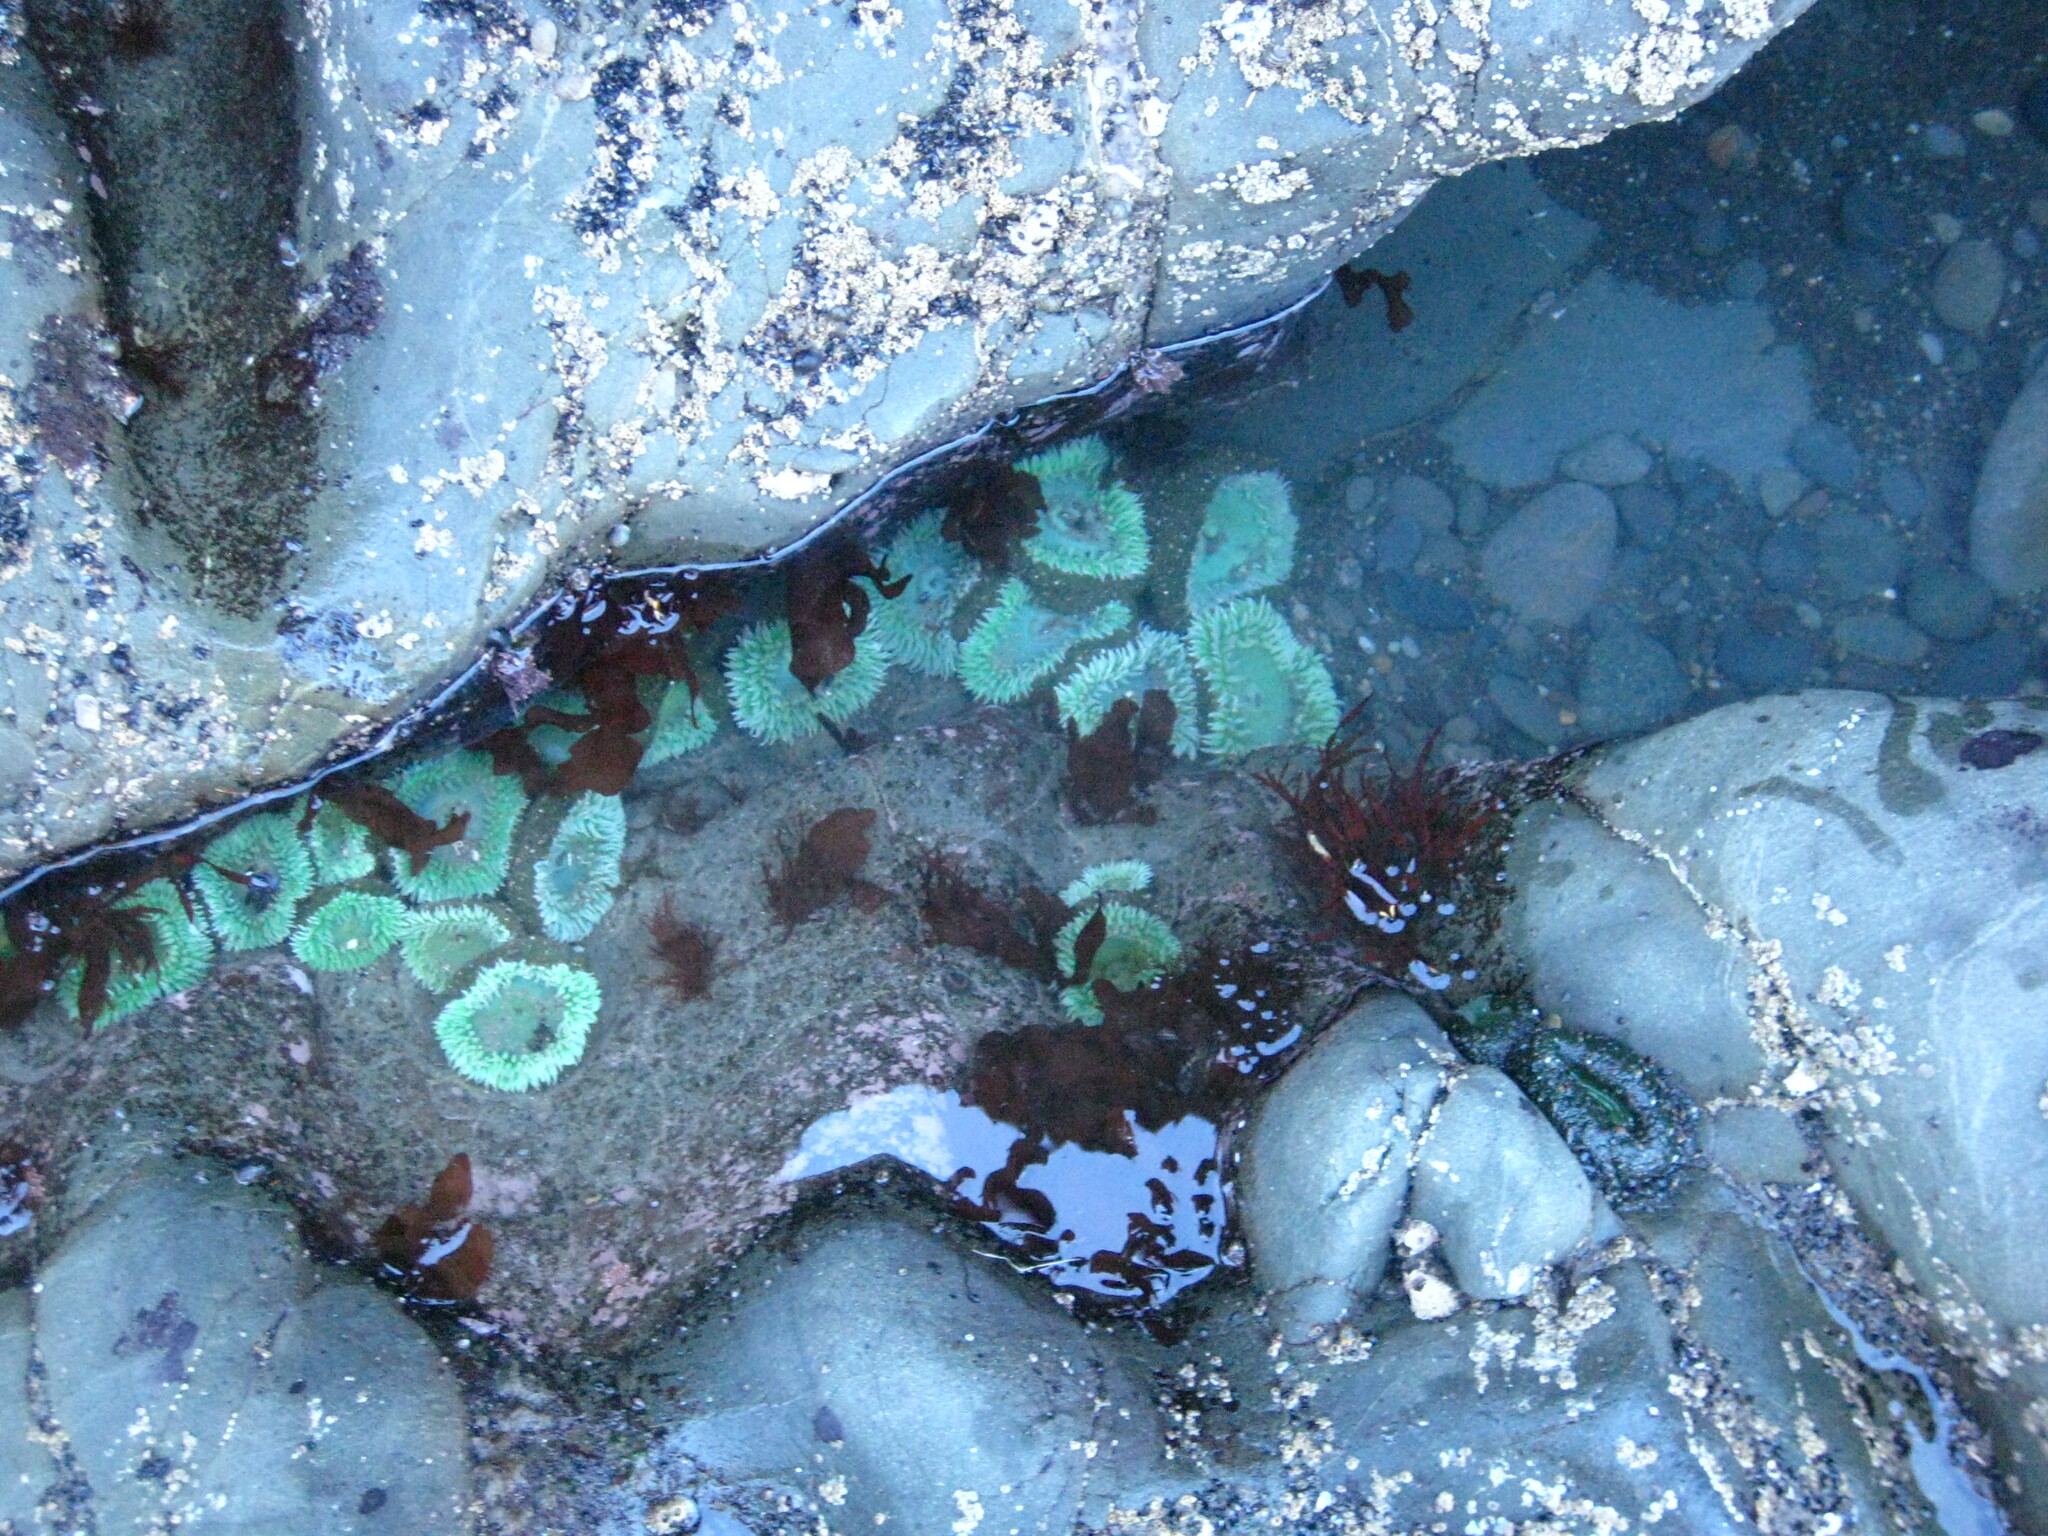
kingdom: Animalia
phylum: Cnidaria
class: Anthozoa
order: Actiniaria
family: Actiniidae
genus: Anthopleura
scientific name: Anthopleura xanthogrammica
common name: Giant green anemone
